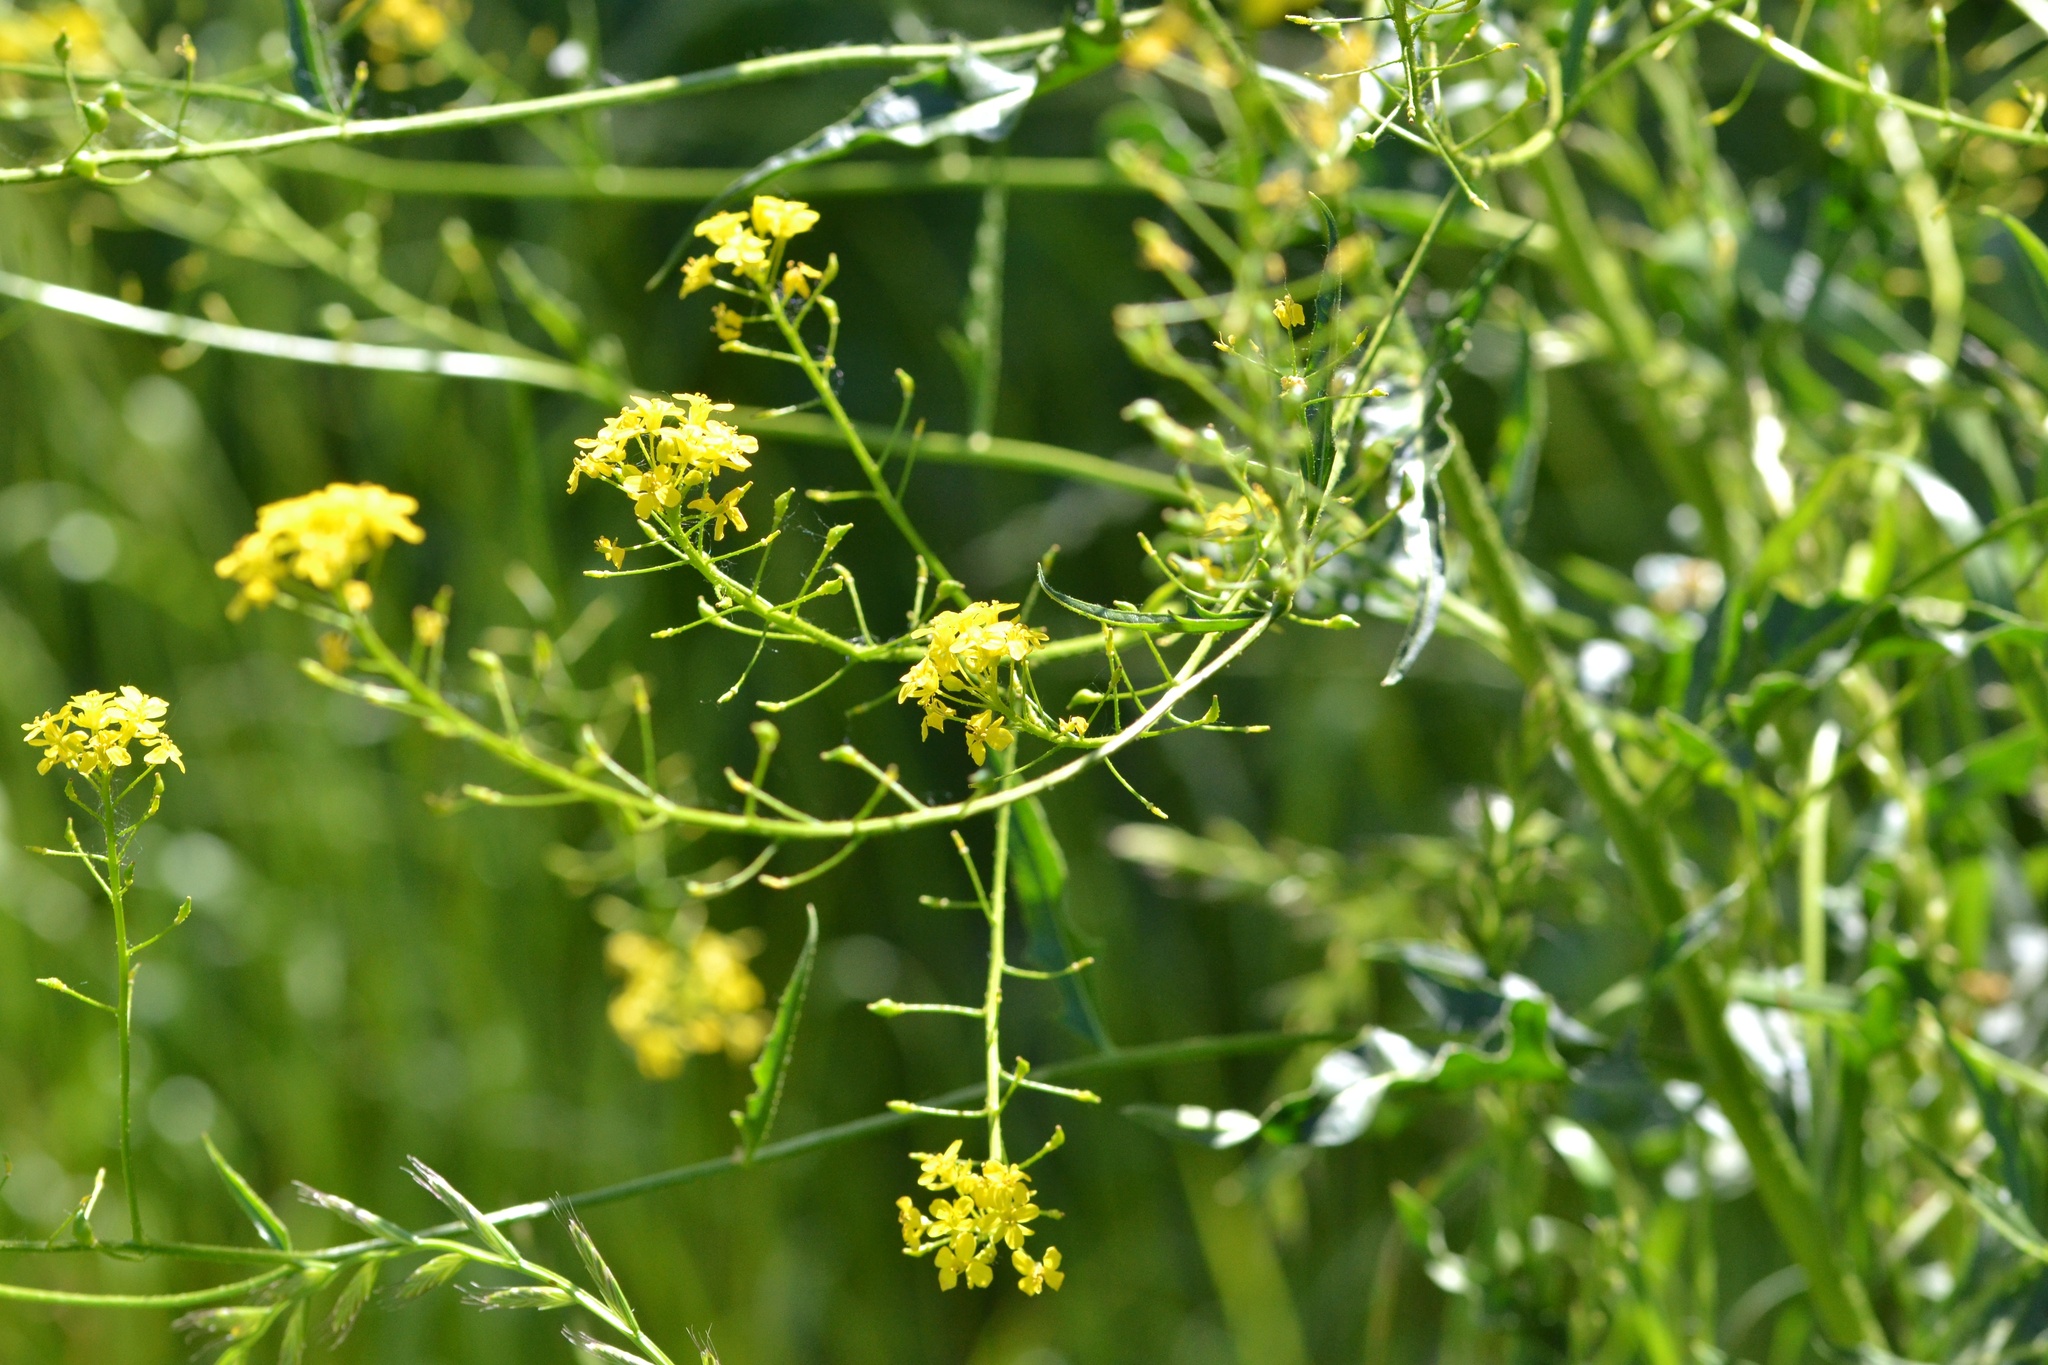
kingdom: Plantae
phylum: Tracheophyta
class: Magnoliopsida
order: Brassicales
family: Brassicaceae
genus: Bunias
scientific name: Bunias orientalis
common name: Warty-cabbage
